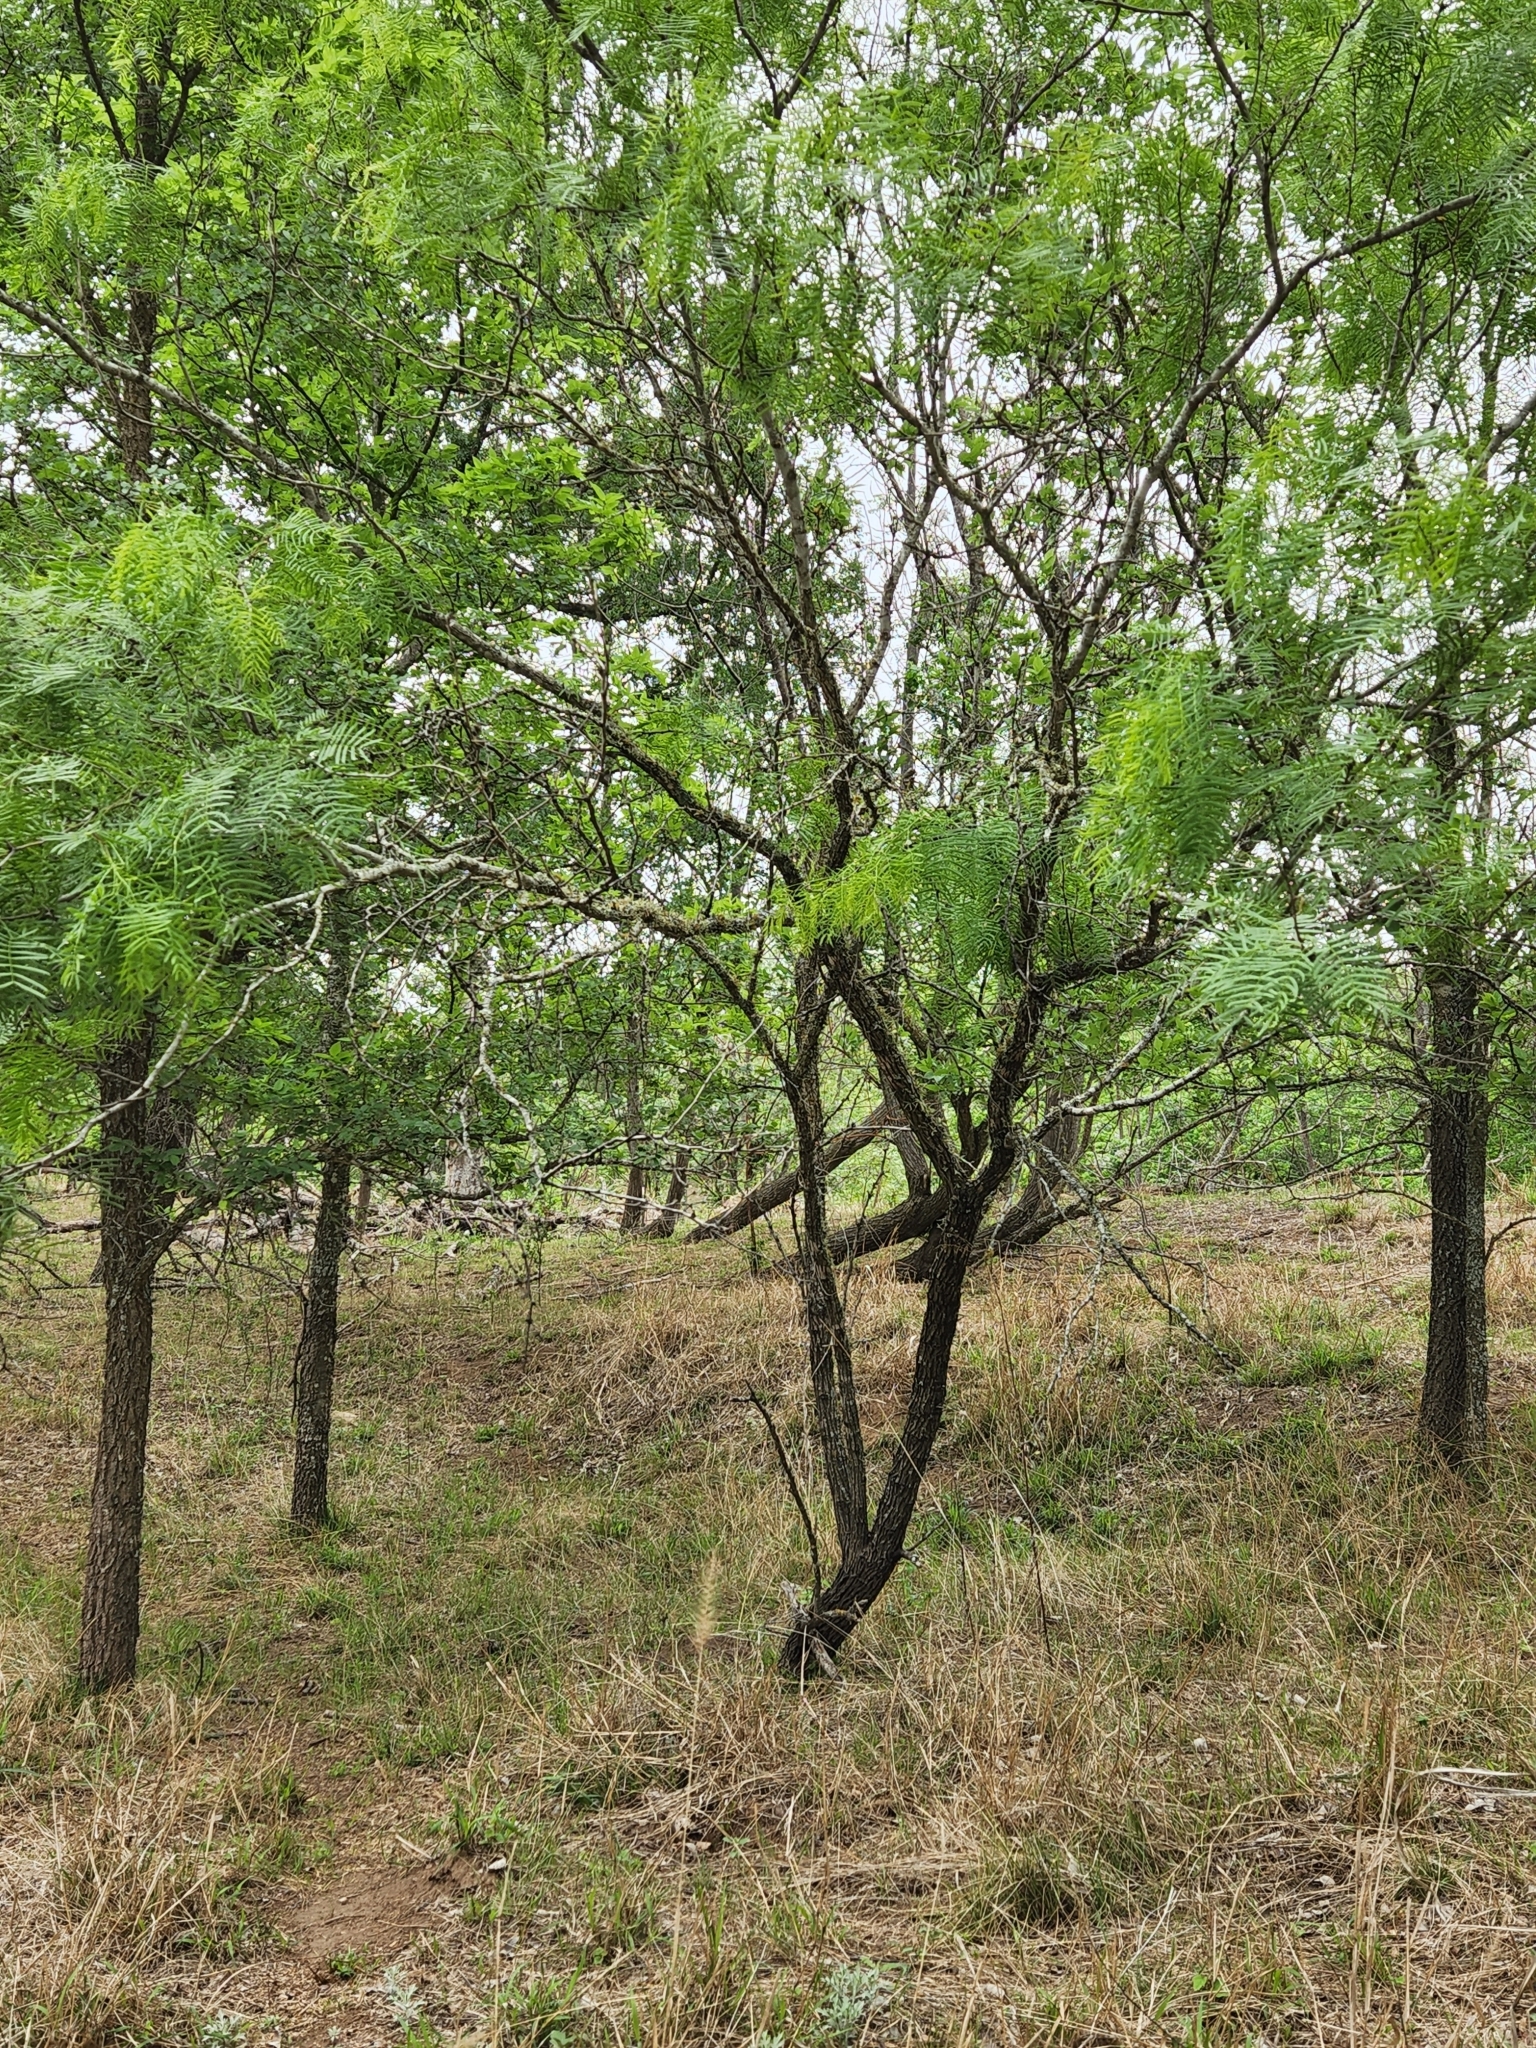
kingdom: Plantae
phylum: Tracheophyta
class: Magnoliopsida
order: Fabales
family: Fabaceae
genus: Prosopis
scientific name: Prosopis glandulosa
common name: Honey mesquite
